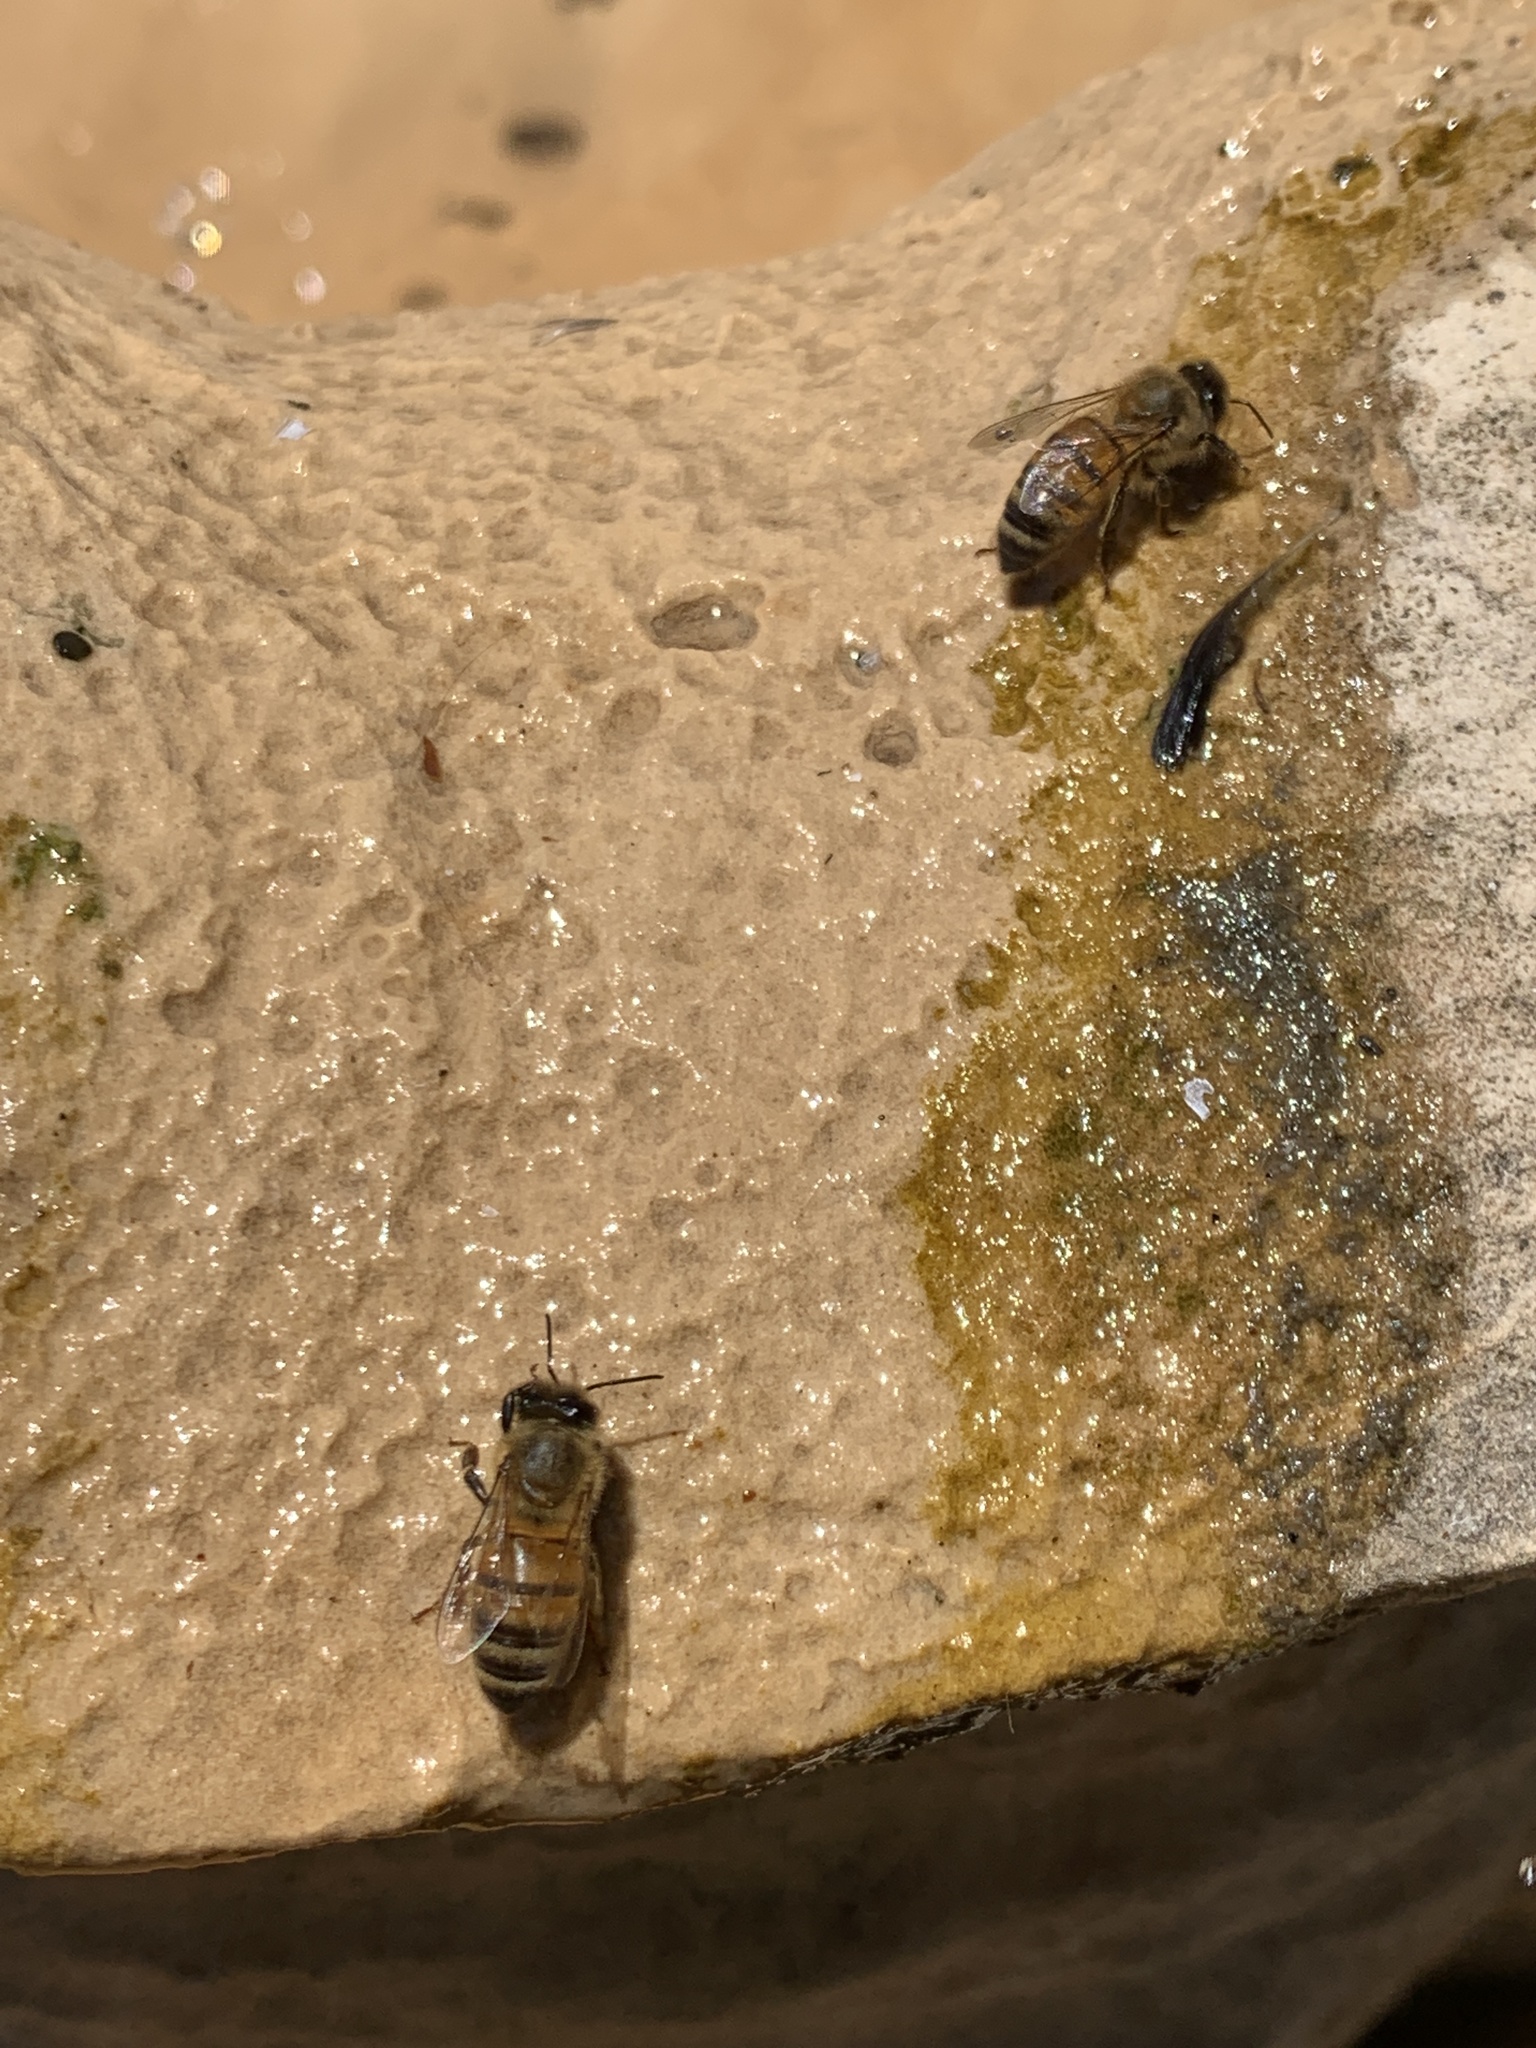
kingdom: Animalia
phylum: Arthropoda
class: Insecta
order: Hymenoptera
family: Apidae
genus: Apis
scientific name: Apis mellifera
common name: Honey bee
